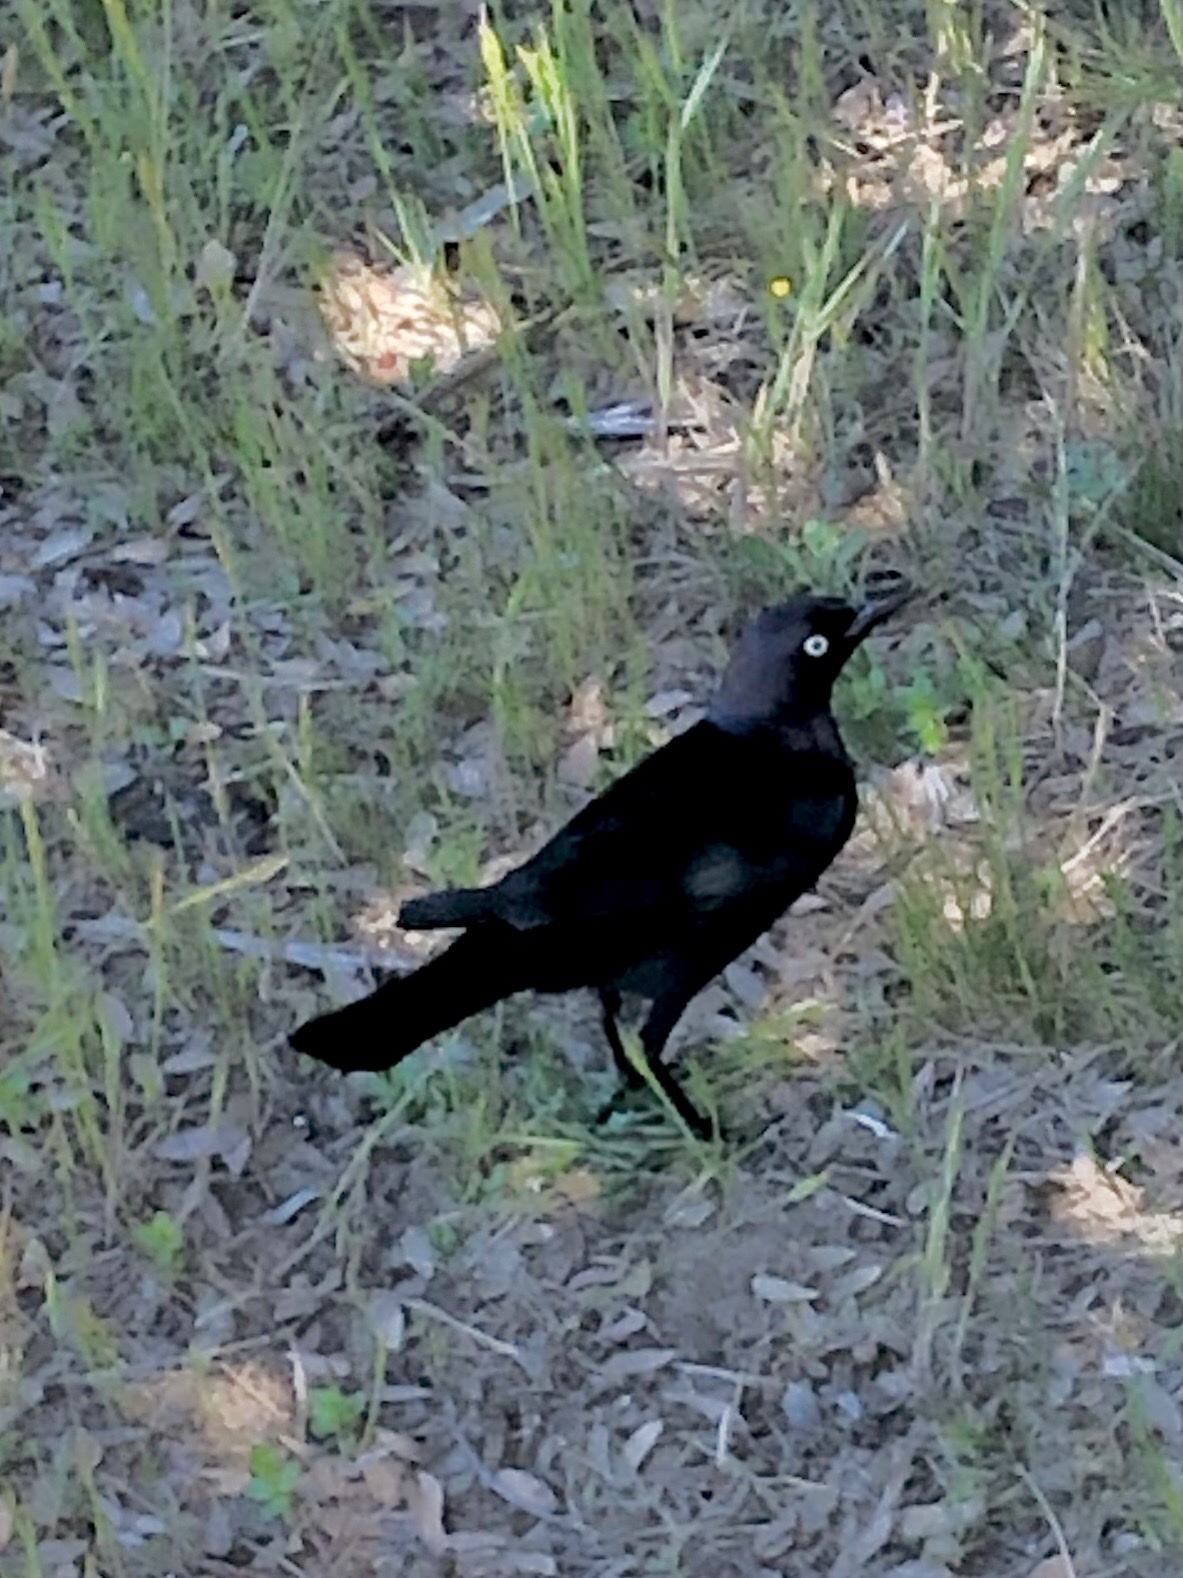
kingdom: Animalia
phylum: Chordata
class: Aves
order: Passeriformes
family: Icteridae
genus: Euphagus
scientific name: Euphagus cyanocephalus
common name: Brewer's blackbird
